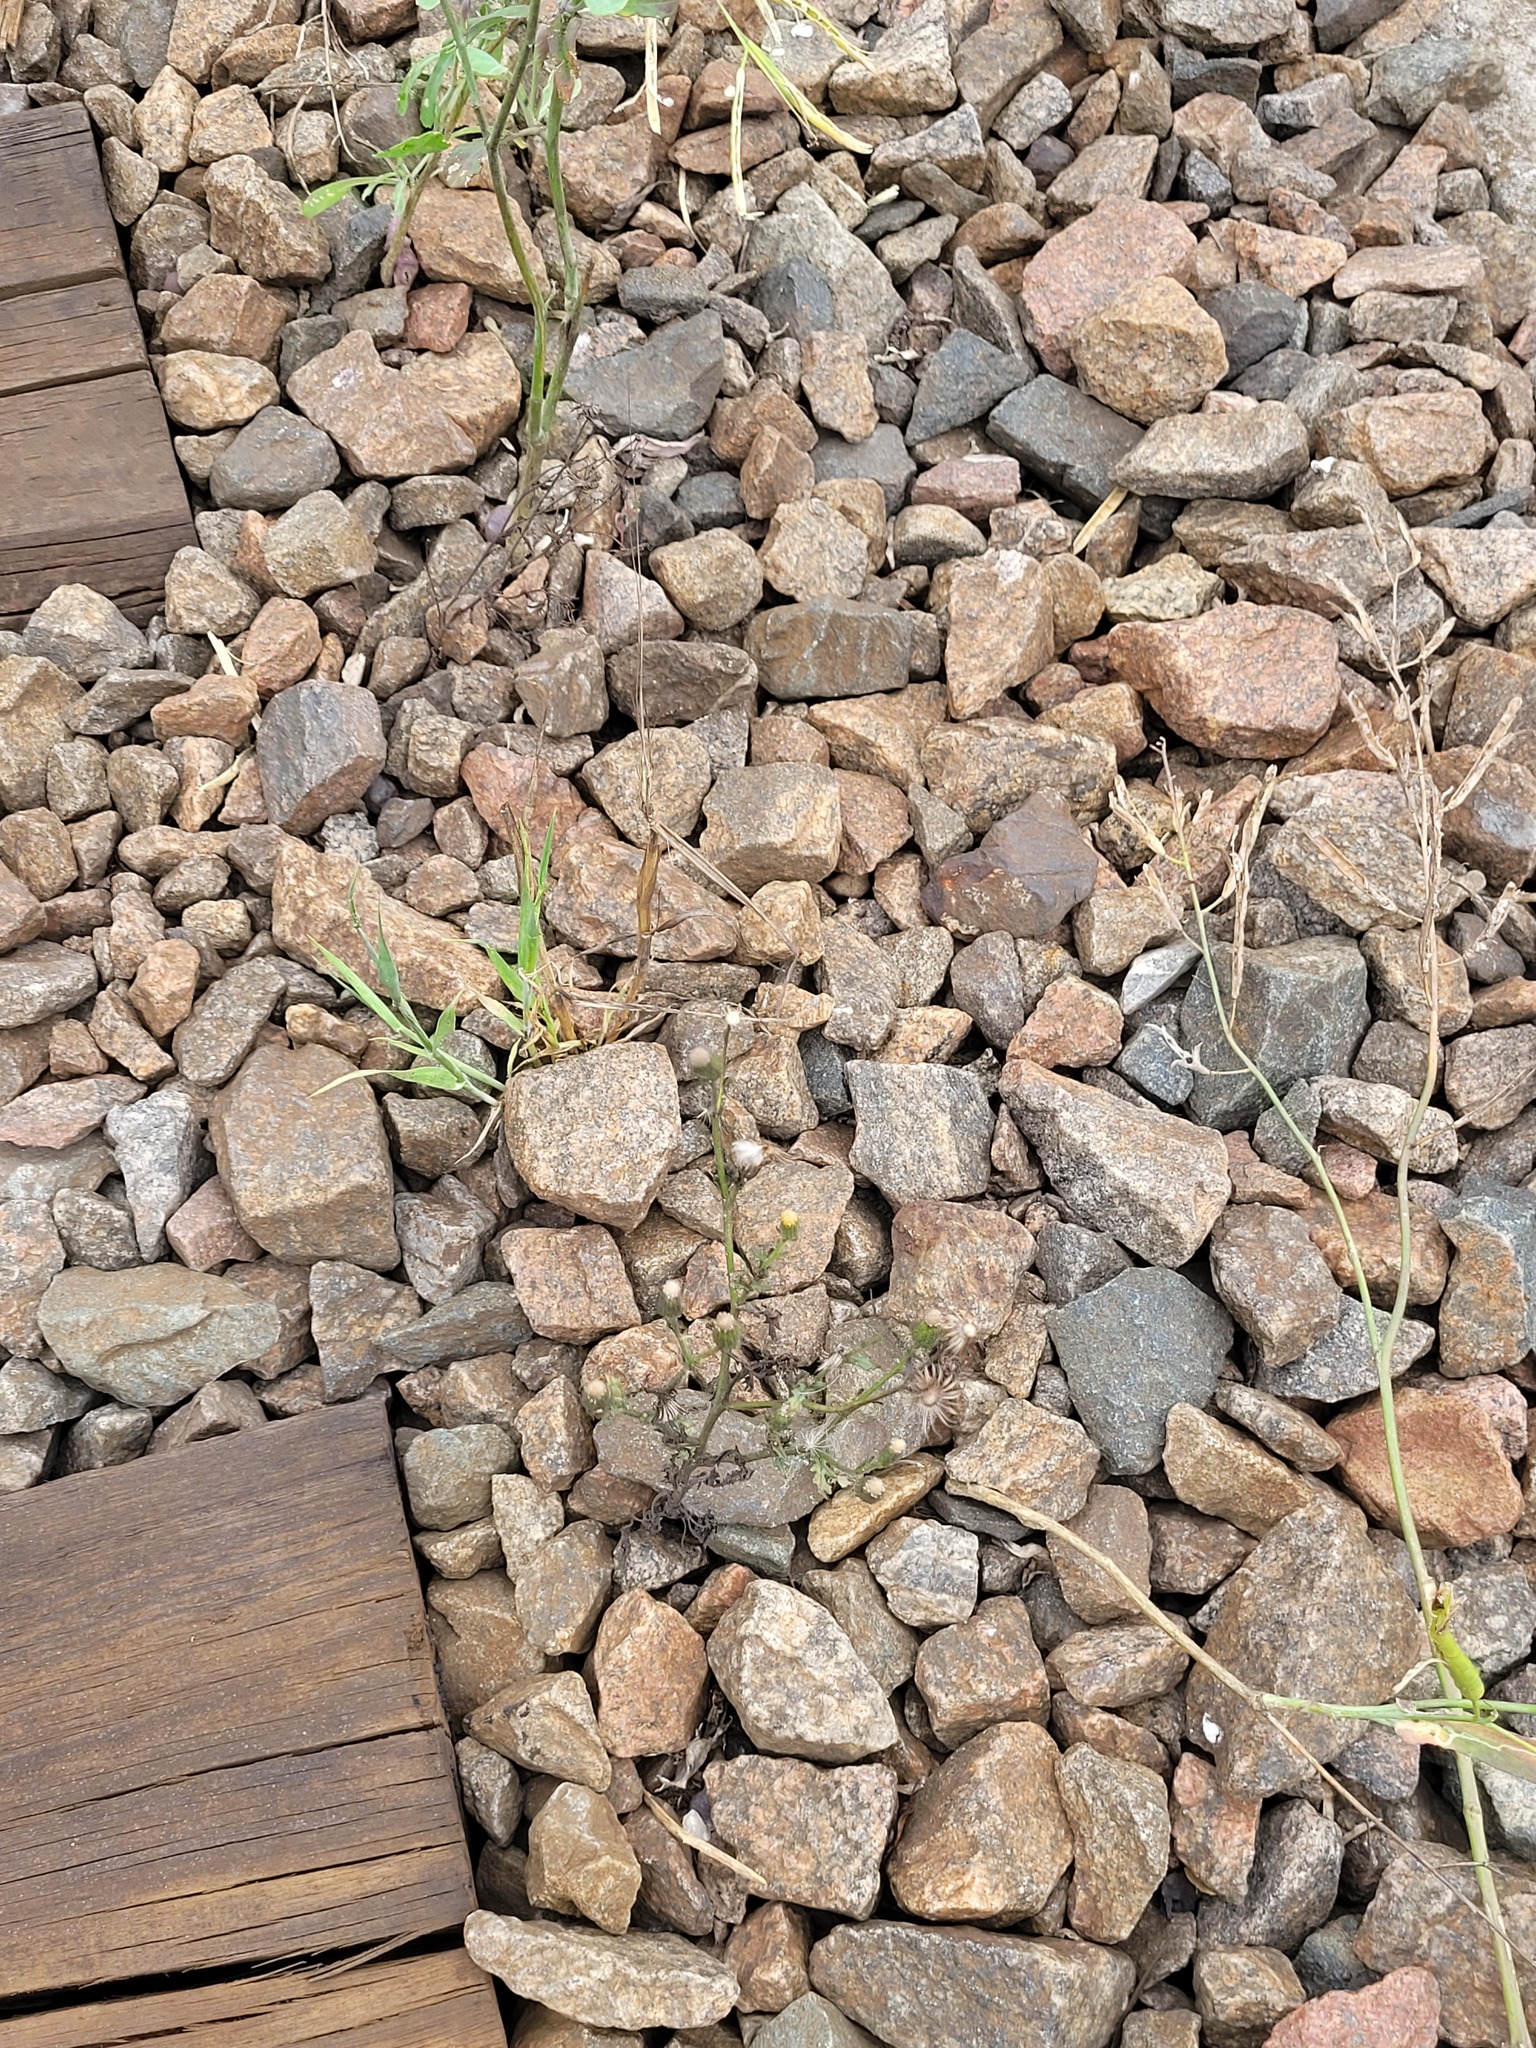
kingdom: Plantae
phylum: Tracheophyta
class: Magnoliopsida
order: Asterales
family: Asteraceae
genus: Senecio
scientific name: Senecio viscosus
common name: Sticky groundsel
